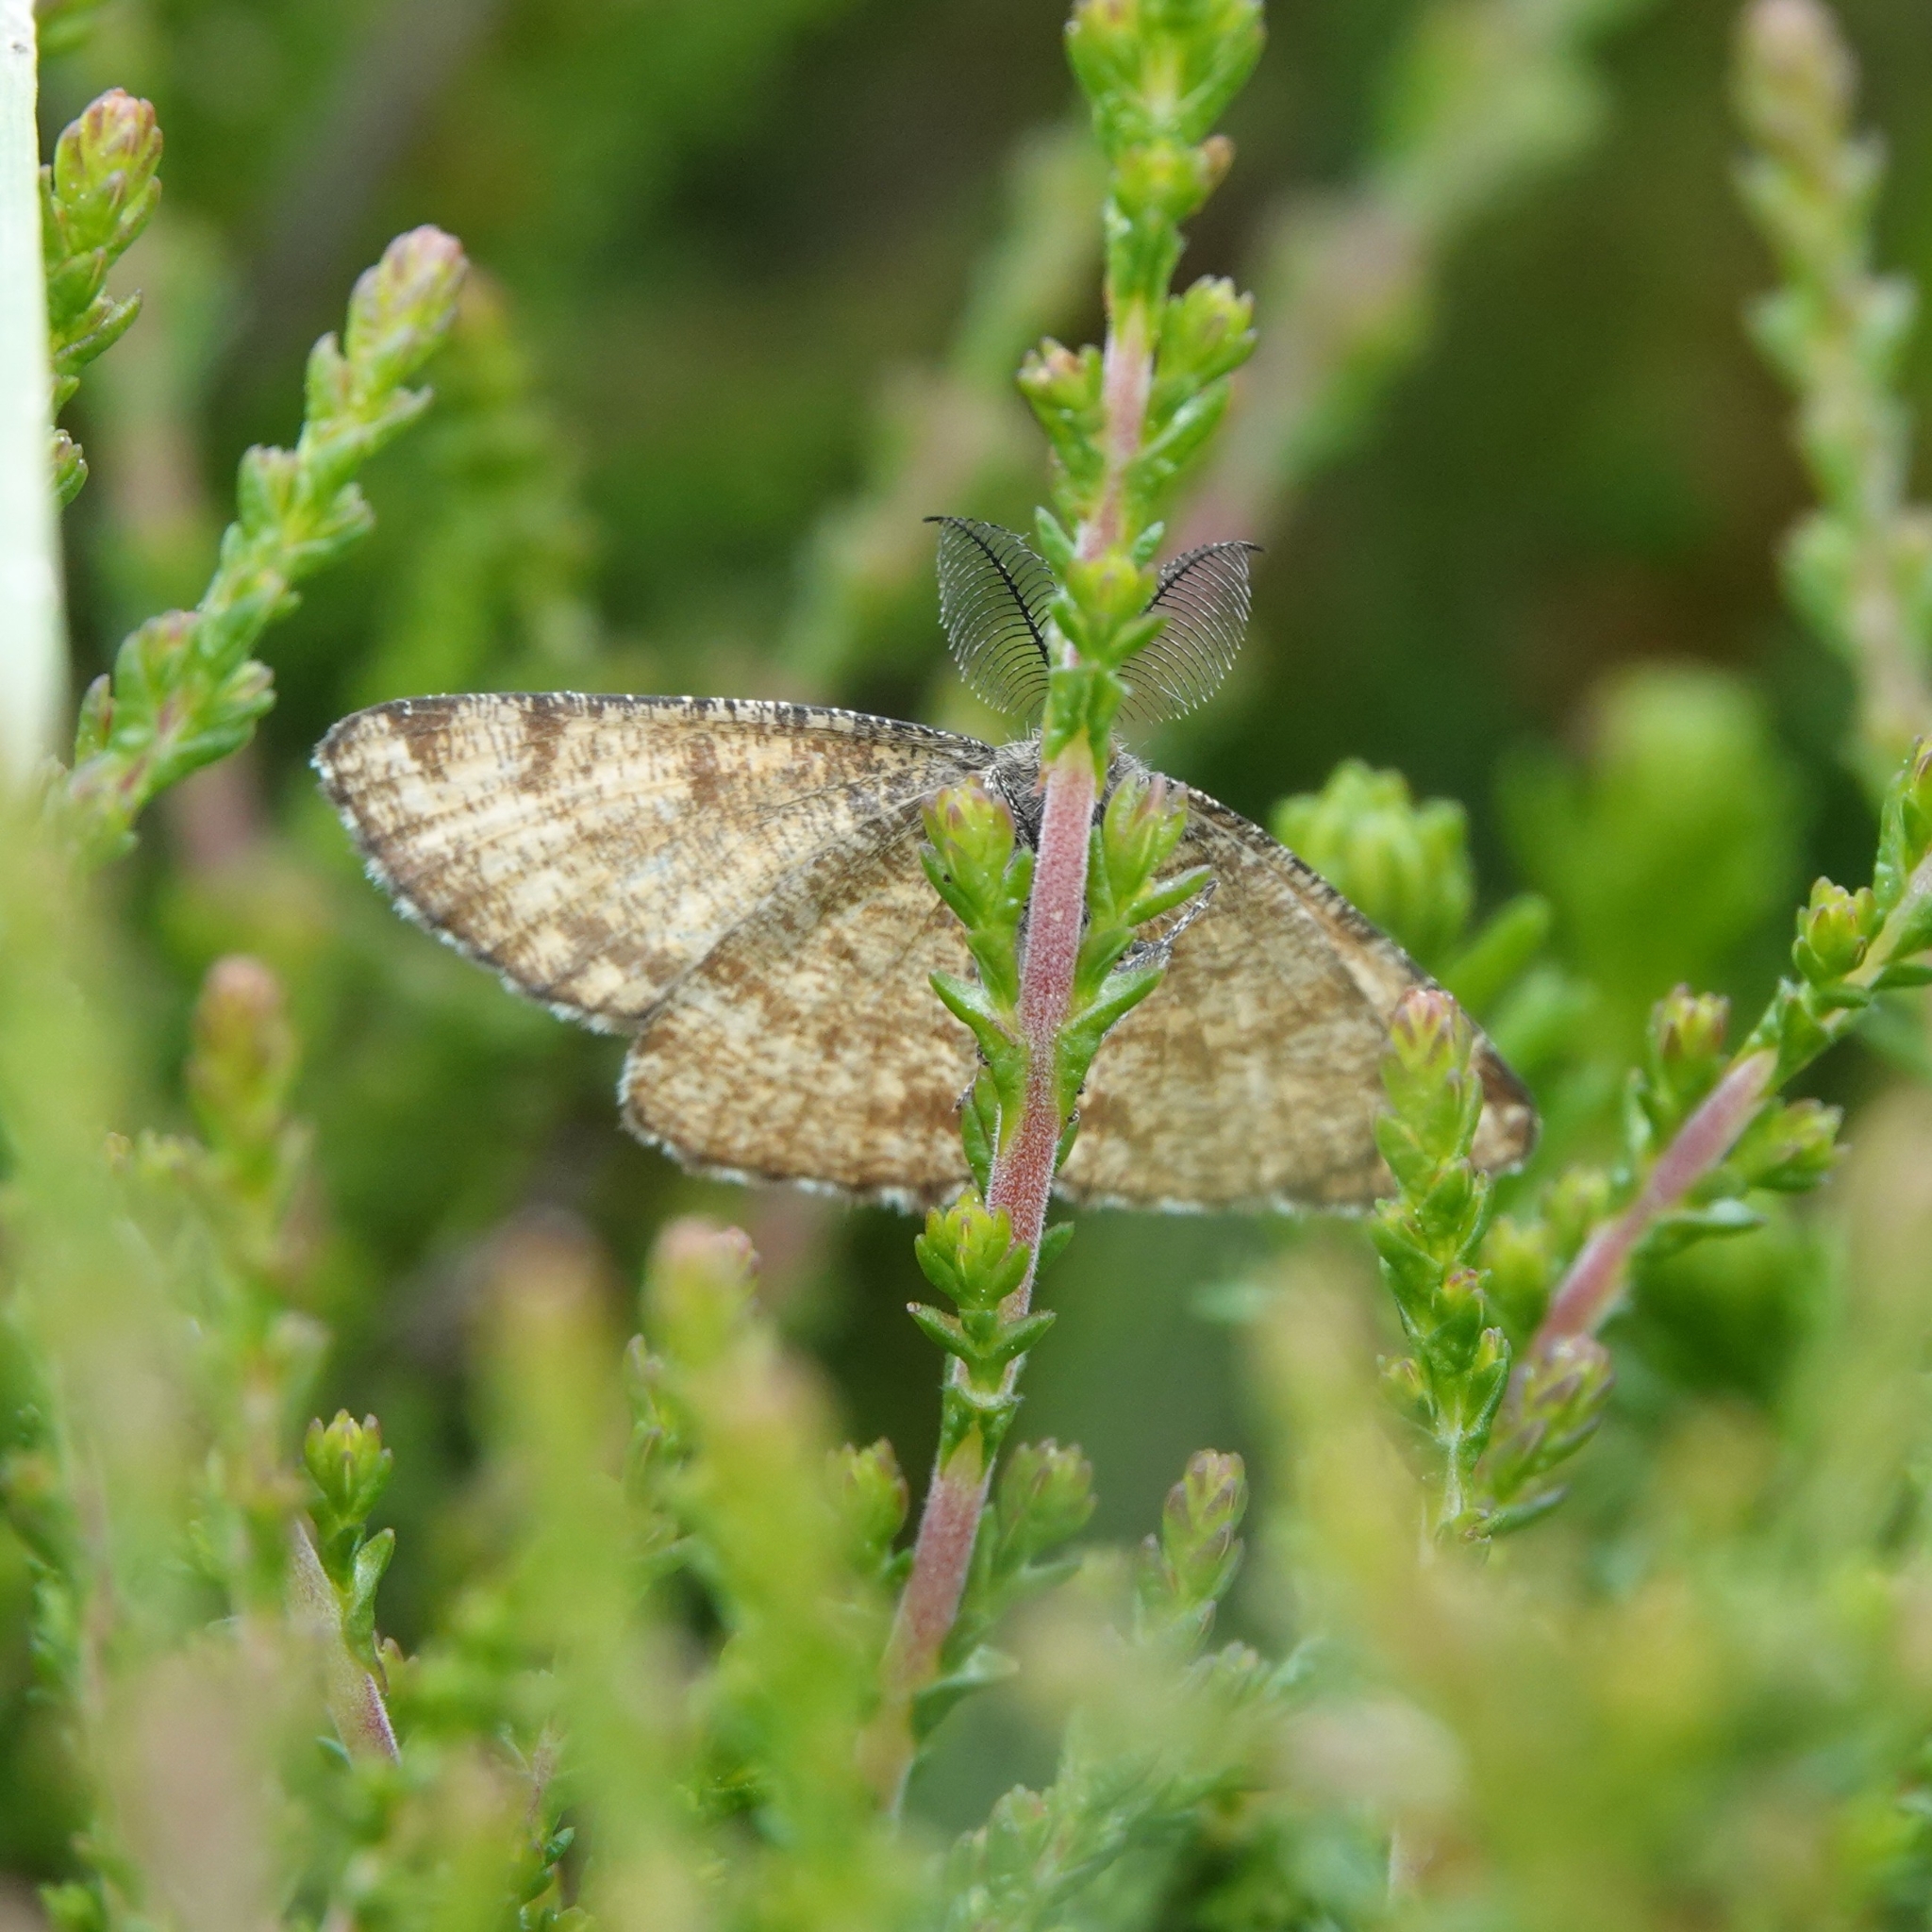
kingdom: Animalia
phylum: Arthropoda
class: Insecta
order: Lepidoptera
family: Geometridae
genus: Ematurga
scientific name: Ematurga atomaria
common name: Common heath
